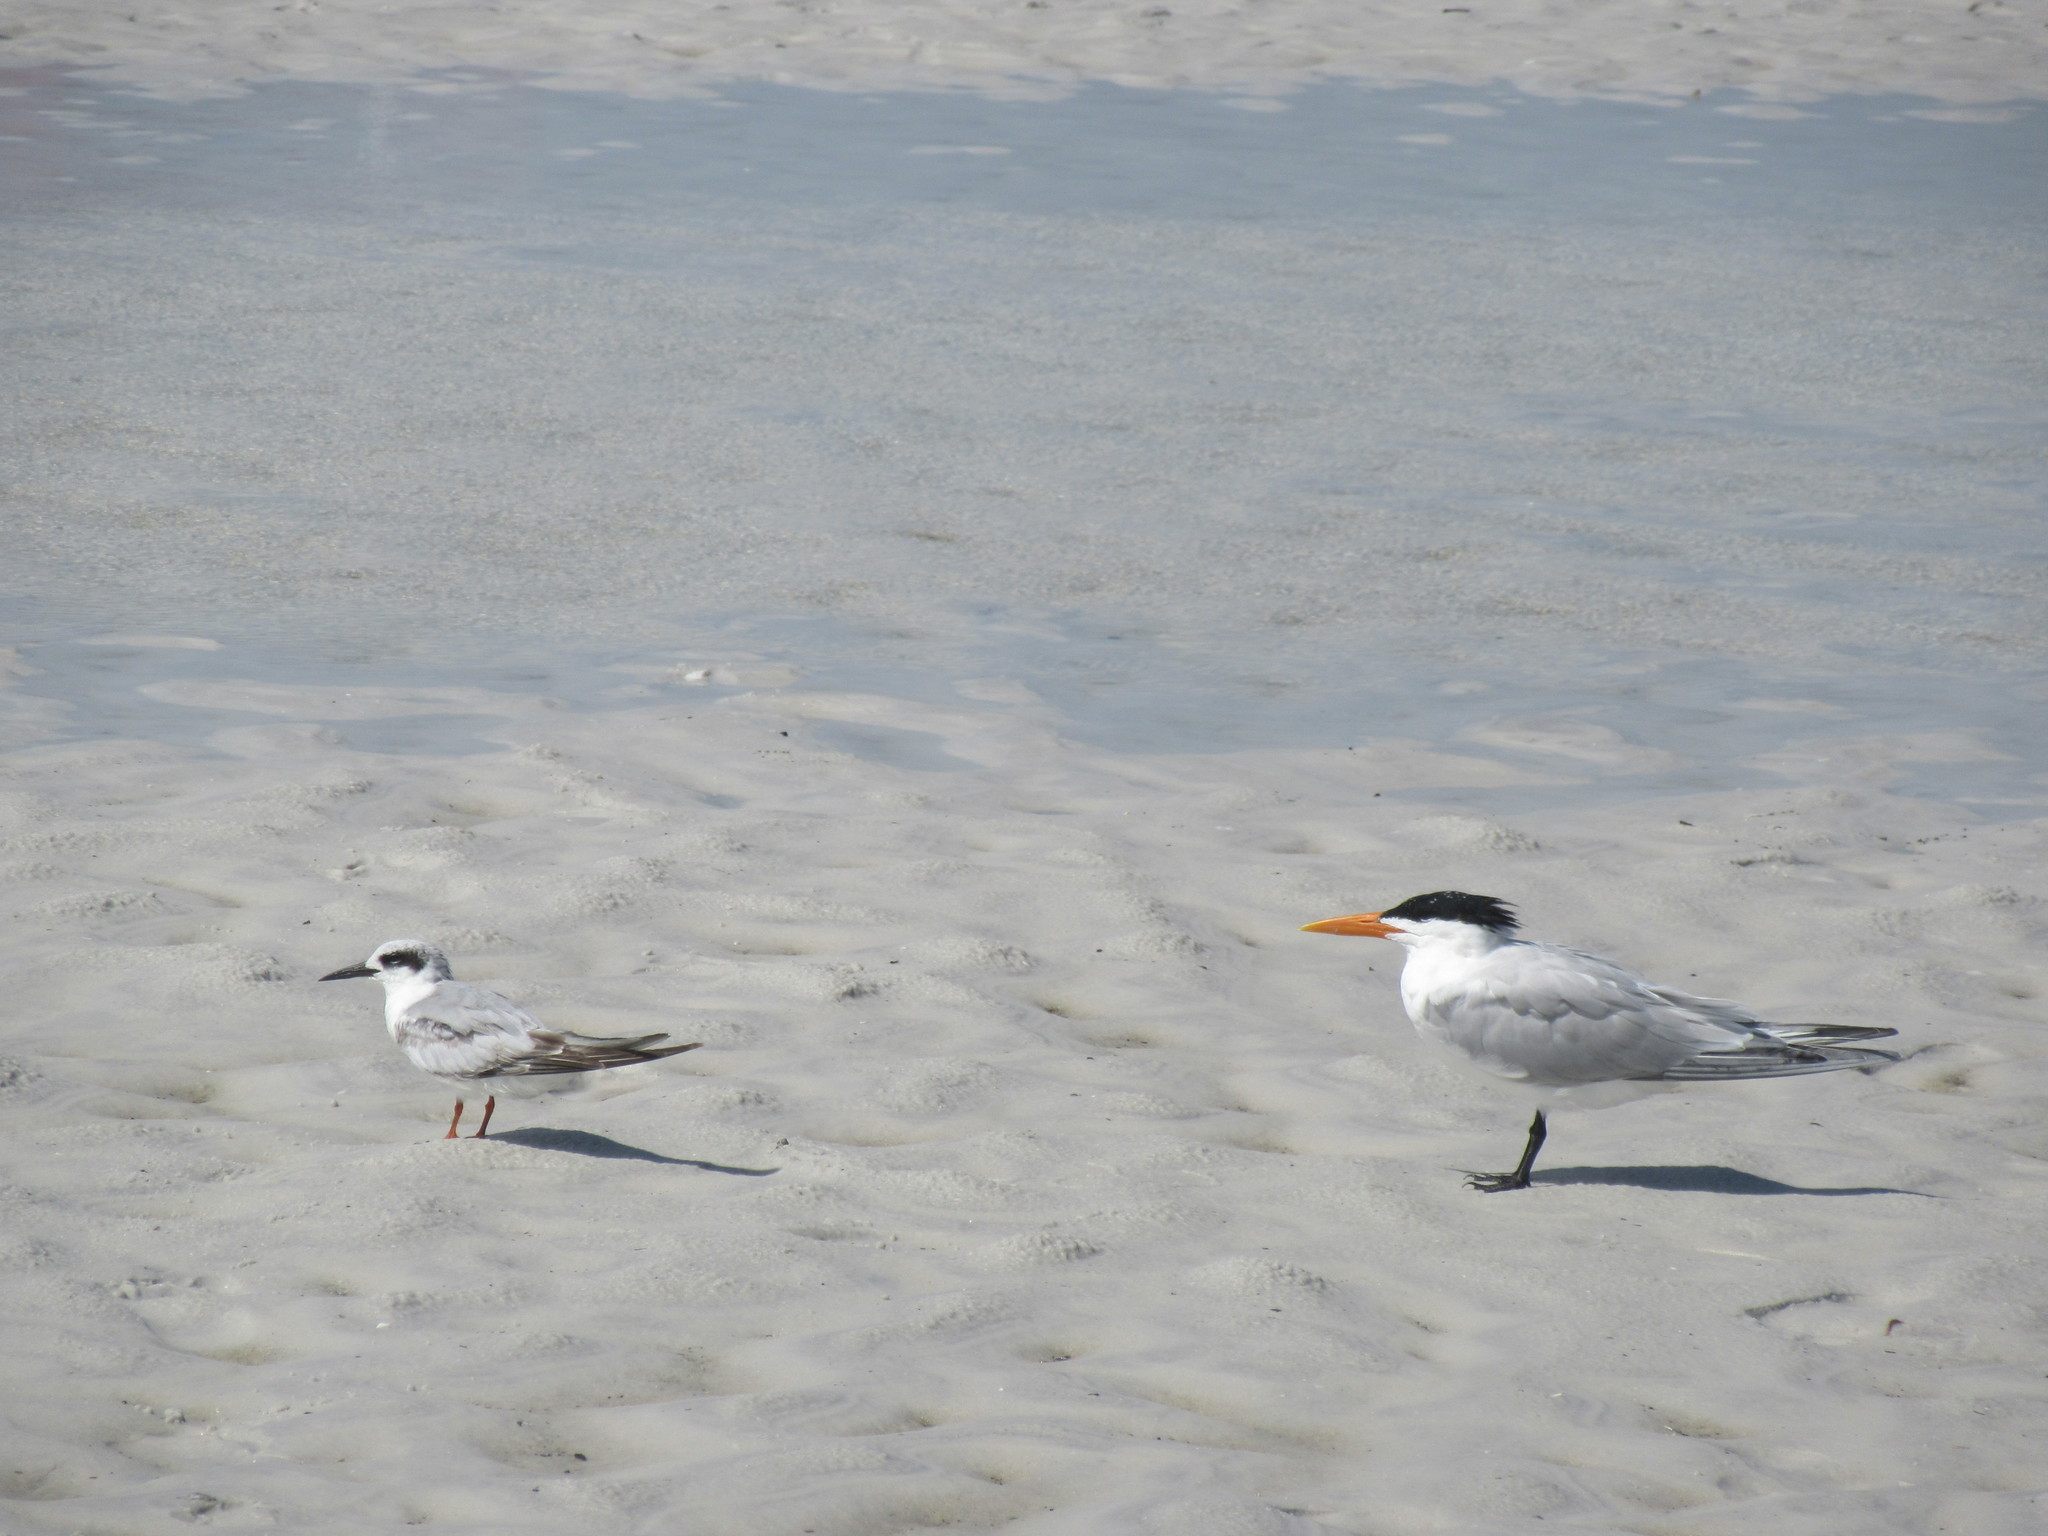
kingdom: Animalia
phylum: Chordata
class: Aves
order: Charadriiformes
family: Laridae
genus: Sterna
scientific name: Sterna forsteri
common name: Forster's tern
